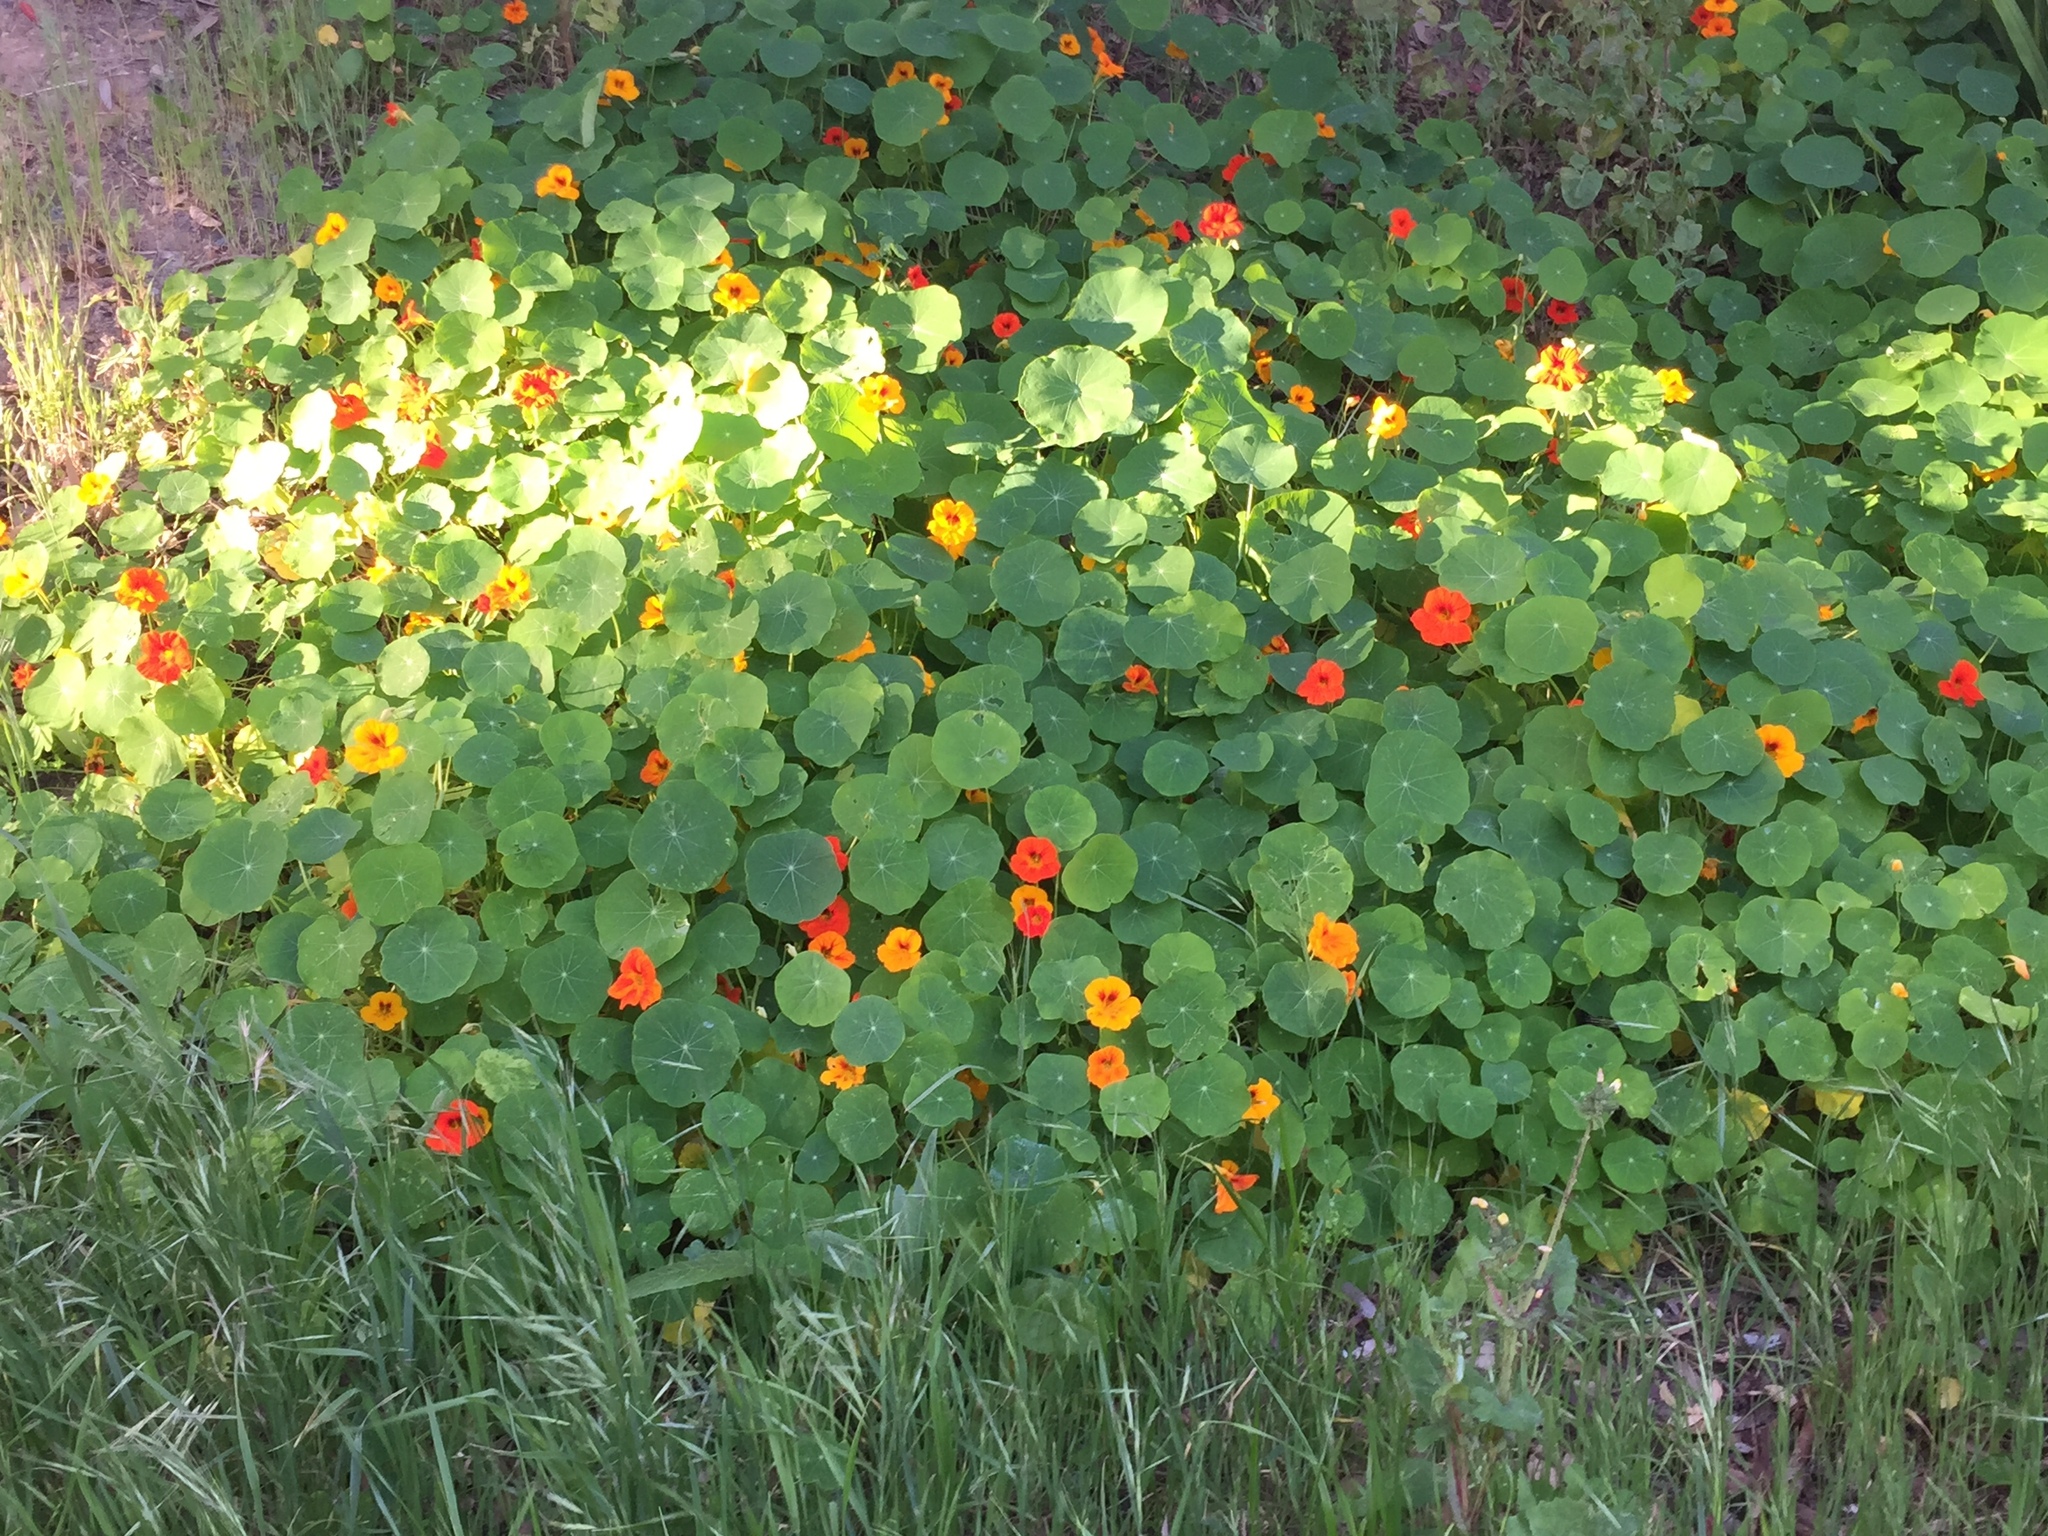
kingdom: Plantae
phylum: Tracheophyta
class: Magnoliopsida
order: Brassicales
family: Tropaeolaceae
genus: Tropaeolum
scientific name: Tropaeolum majus
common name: Nasturtium
